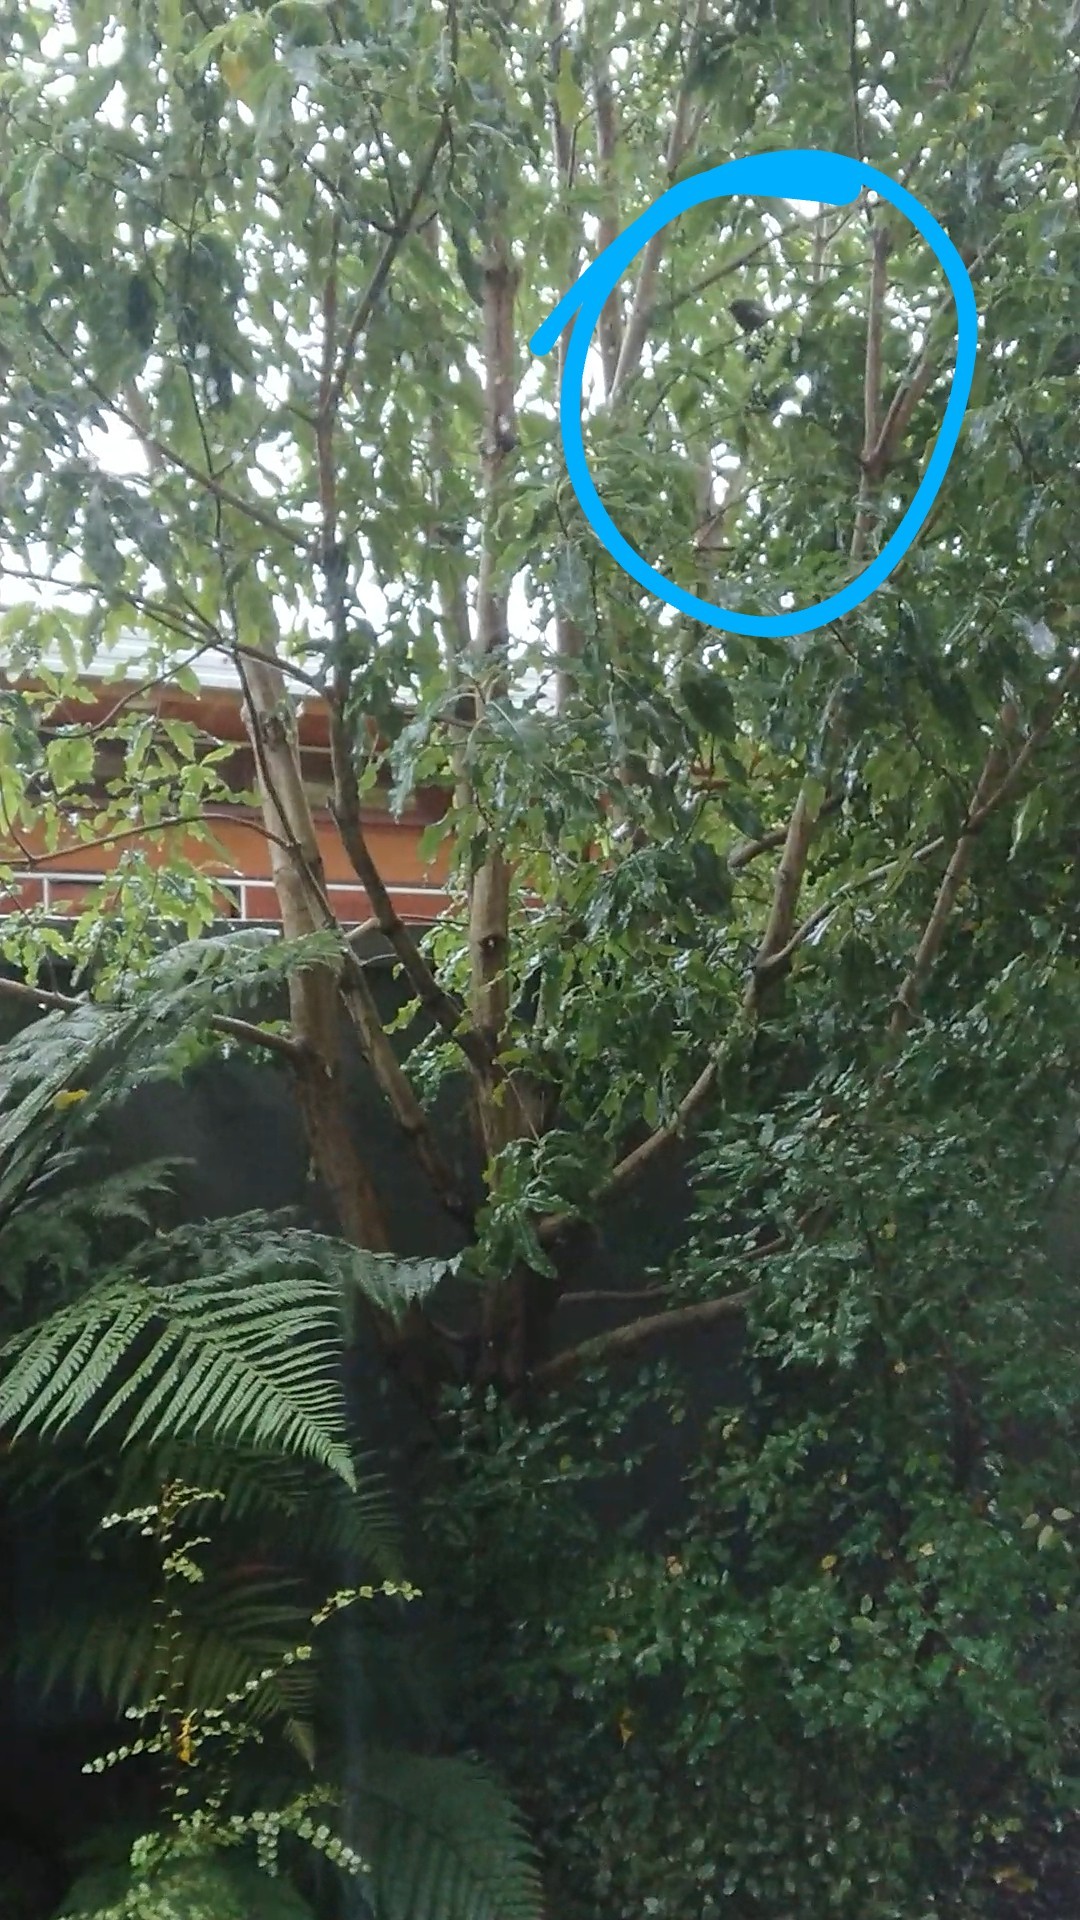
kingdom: Animalia
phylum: Chordata
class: Aves
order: Passeriformes
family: Meliphagidae
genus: Anthornis
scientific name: Anthornis melanura
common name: New zealand bellbird
